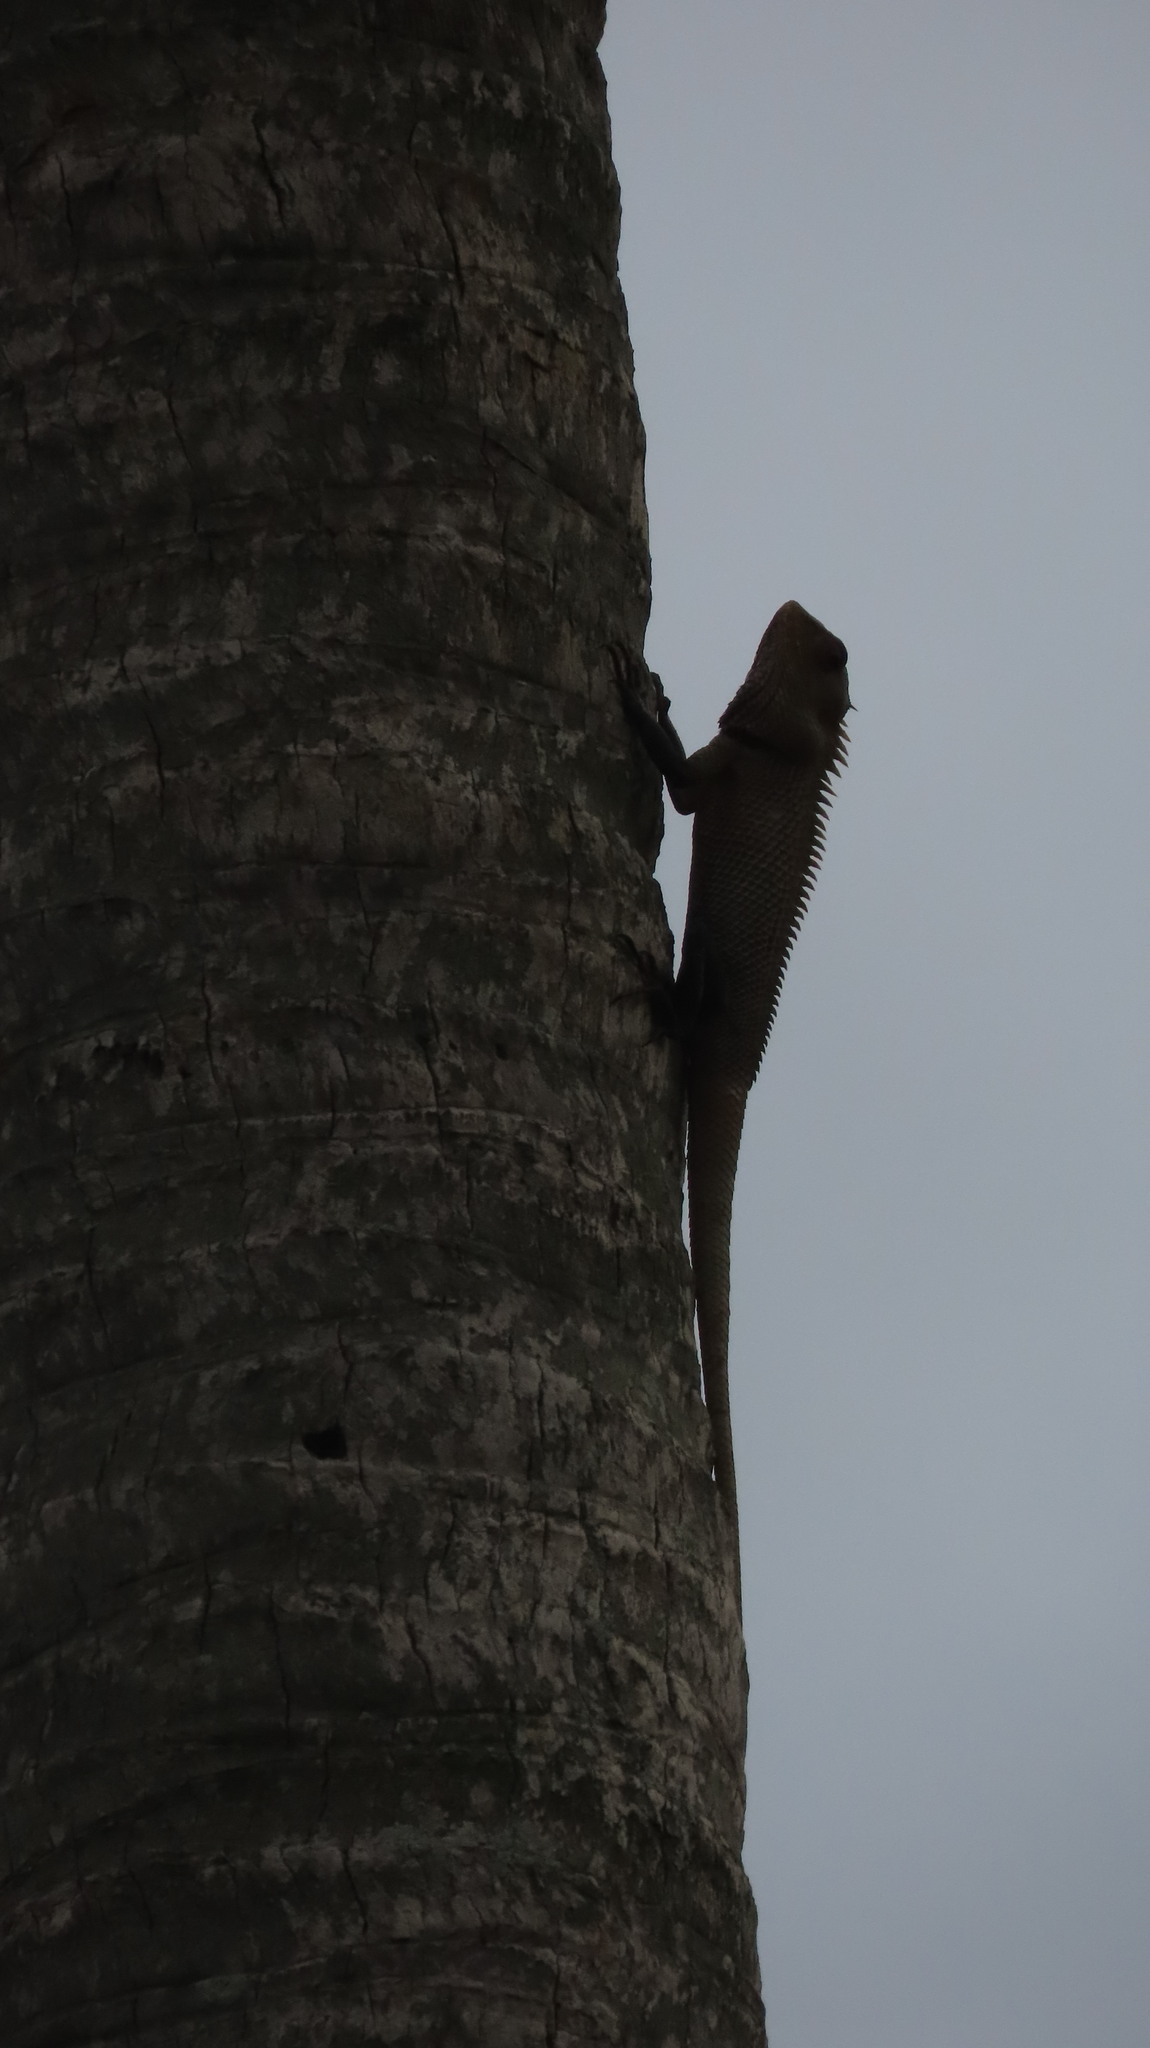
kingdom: Animalia
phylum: Chordata
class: Squamata
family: Agamidae
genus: Calotes
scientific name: Calotes versicolor
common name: Oriental garden lizard
